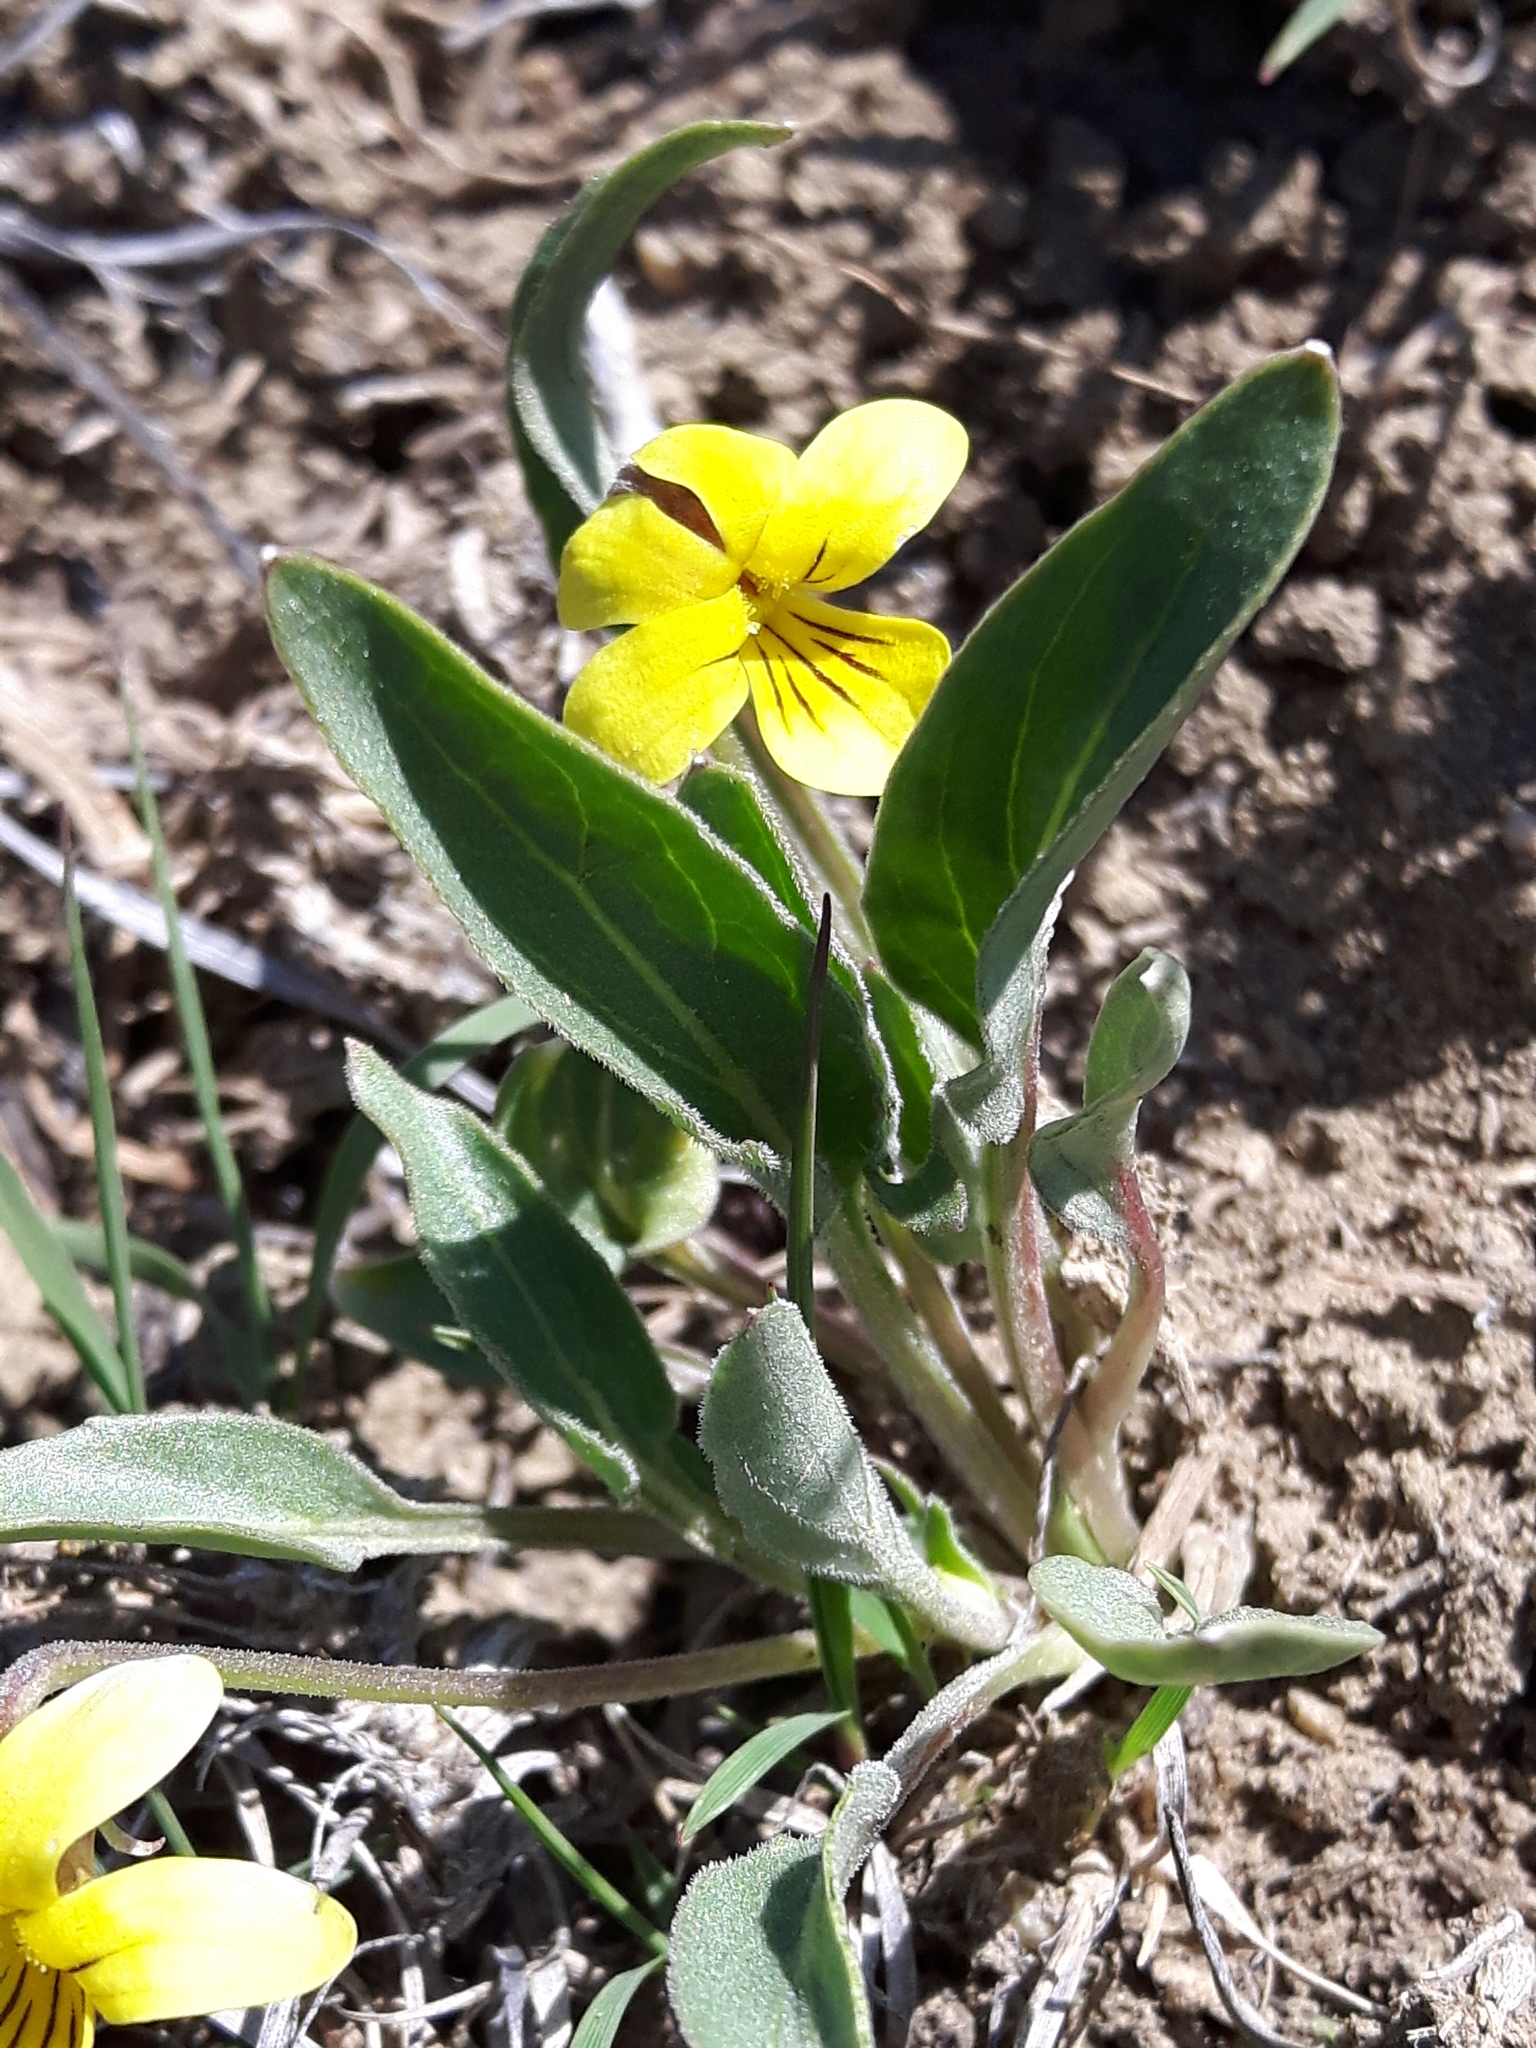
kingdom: Plantae
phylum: Tracheophyta
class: Magnoliopsida
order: Malpighiales
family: Violaceae
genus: Viola
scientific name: Viola vallicola
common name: Valley violet
